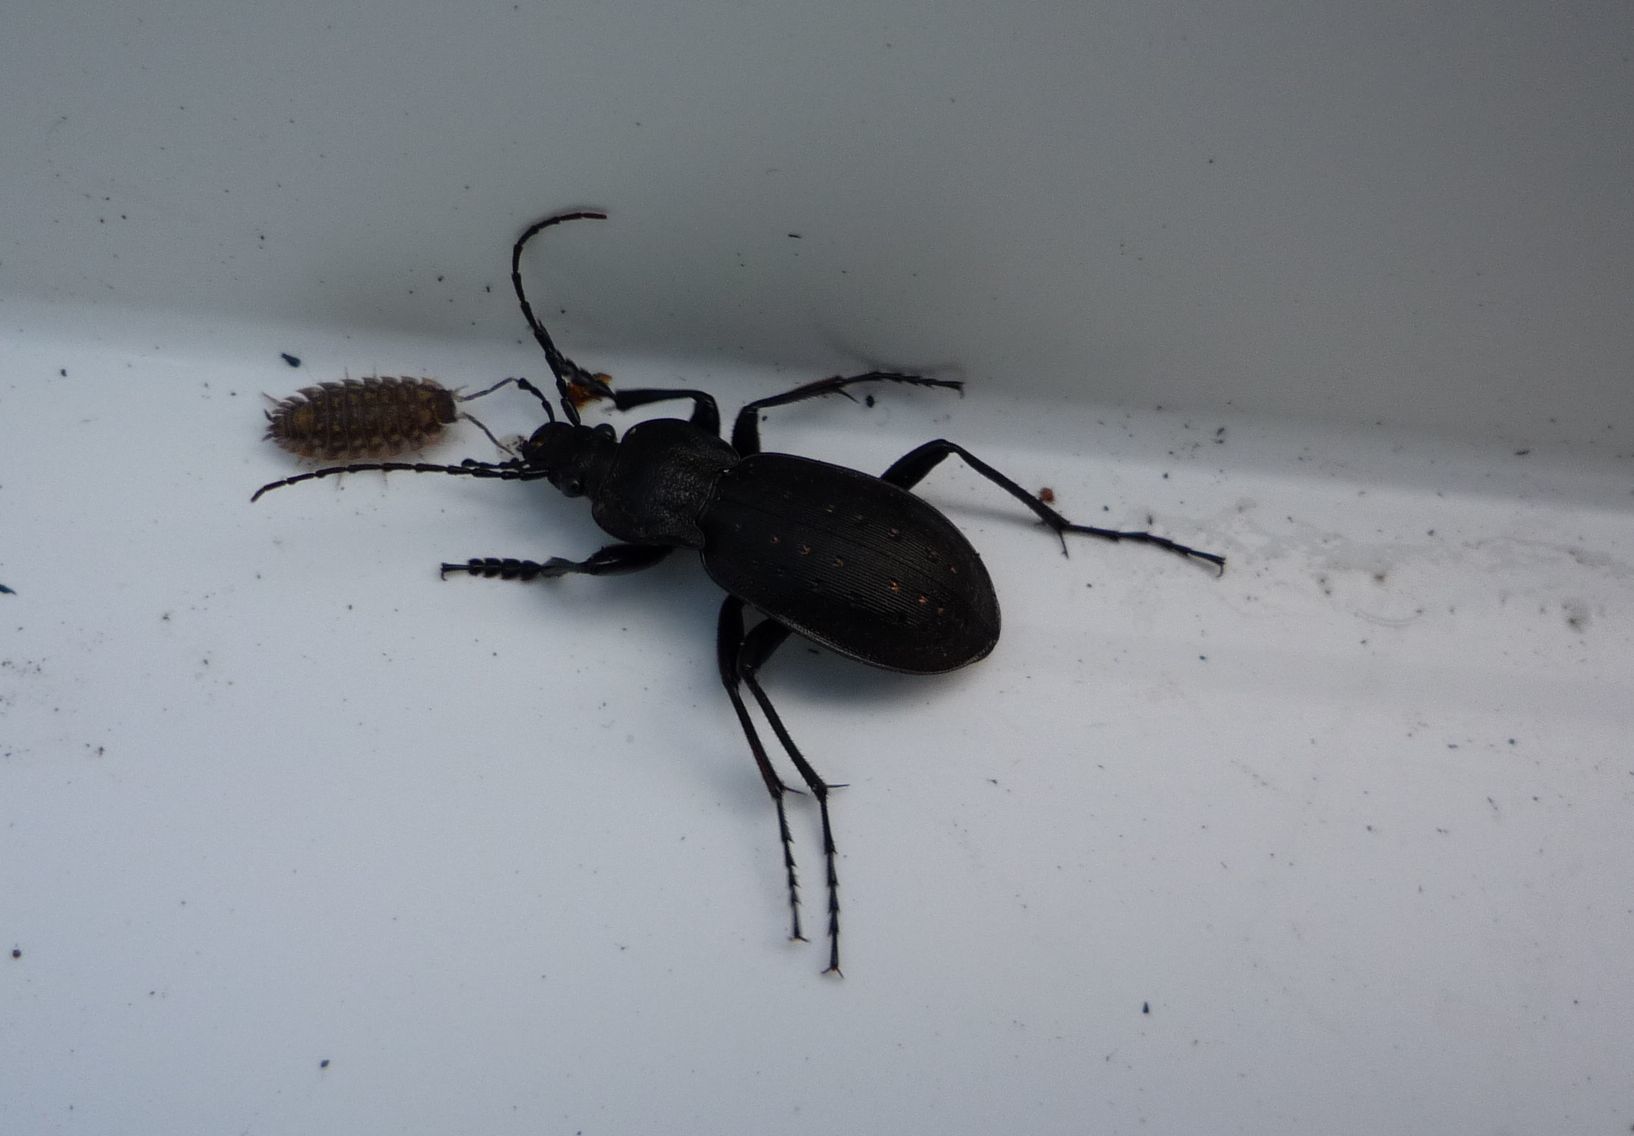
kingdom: Animalia
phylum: Arthropoda
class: Insecta
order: Coleoptera
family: Carabidae
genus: Carabus
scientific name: Carabus hortensis
